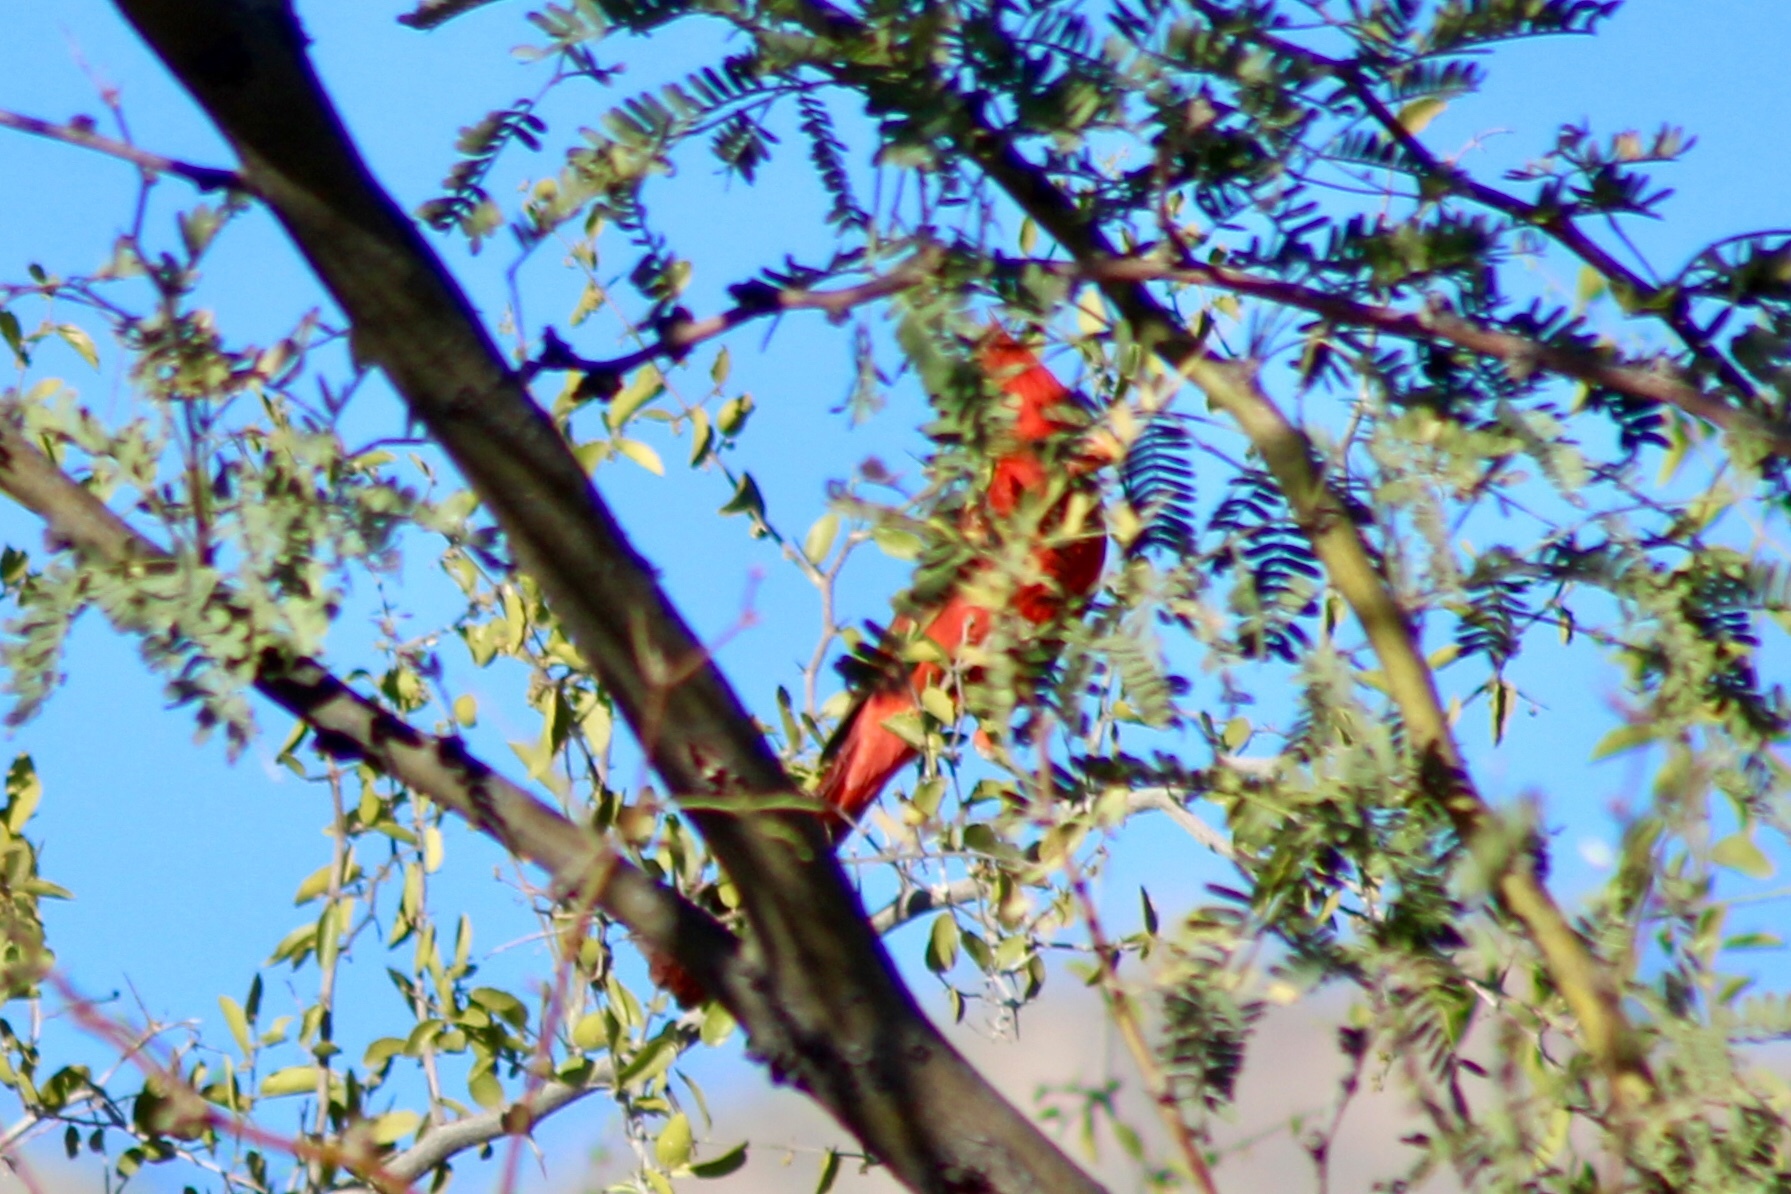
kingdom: Animalia
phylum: Chordata
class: Aves
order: Passeriformes
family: Cardinalidae
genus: Cardinalis
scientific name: Cardinalis cardinalis
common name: Northern cardinal
